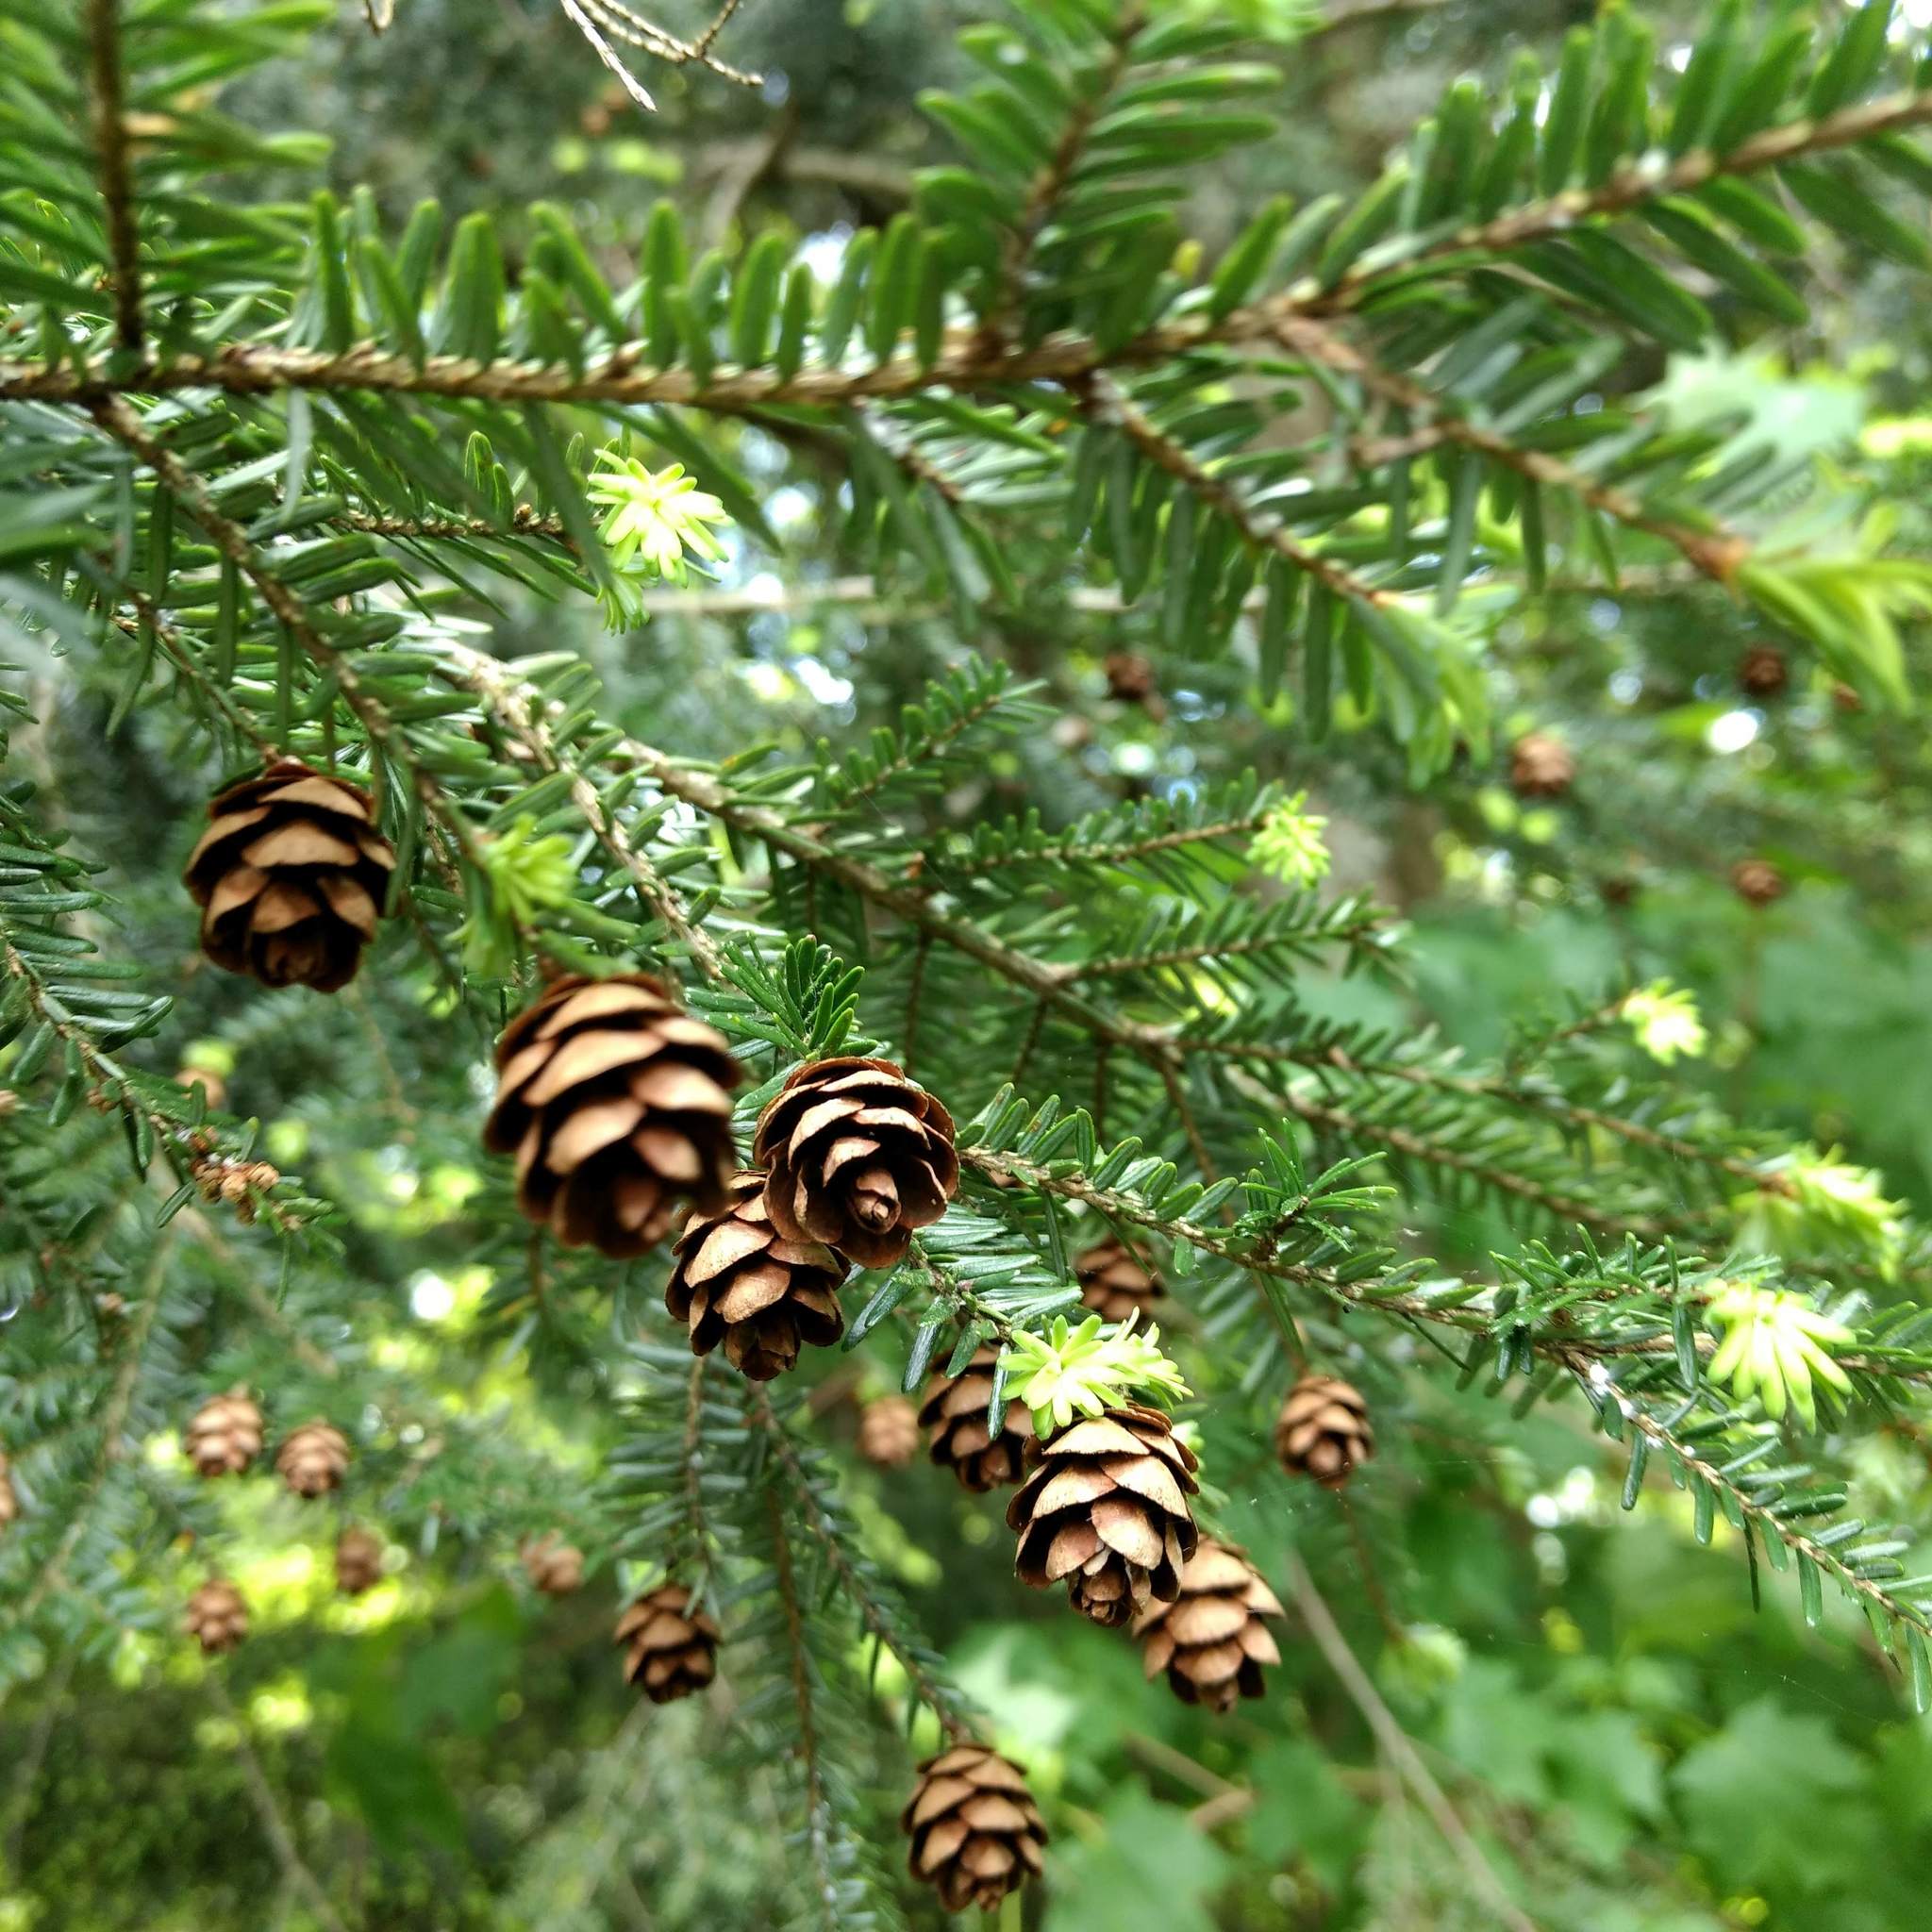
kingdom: Plantae
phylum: Tracheophyta
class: Pinopsida
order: Pinales
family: Pinaceae
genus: Tsuga
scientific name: Tsuga canadensis
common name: Eastern hemlock
